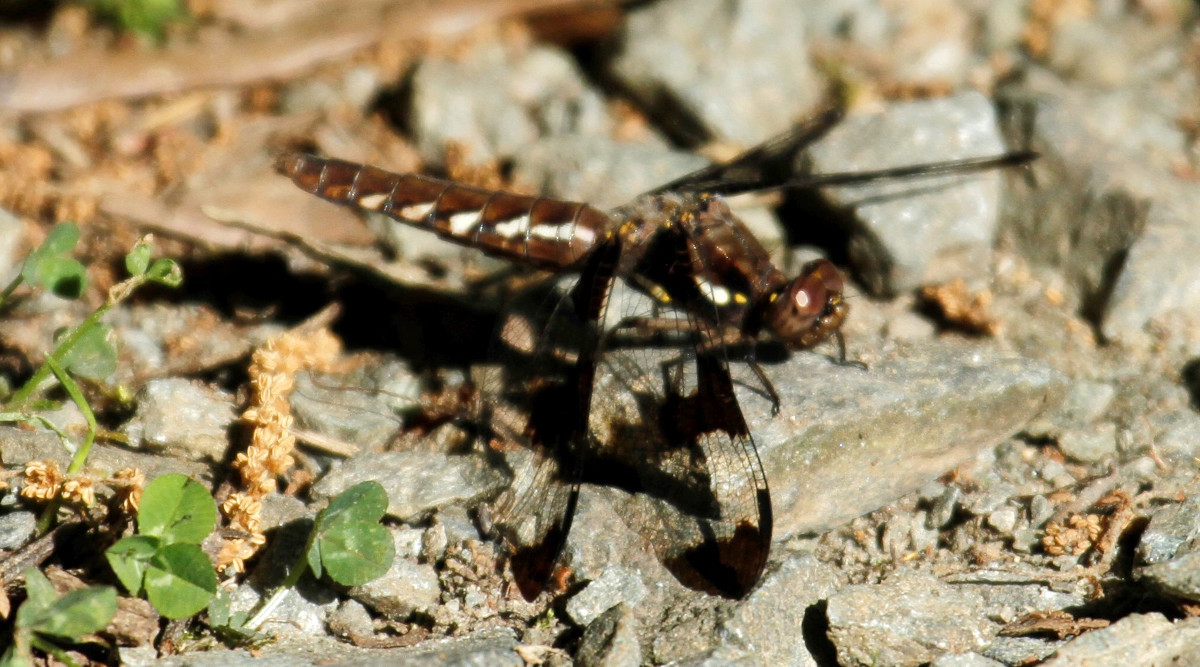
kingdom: Animalia
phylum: Arthropoda
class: Insecta
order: Odonata
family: Libellulidae
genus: Plathemis
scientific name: Plathemis lydia
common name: Common whitetail
